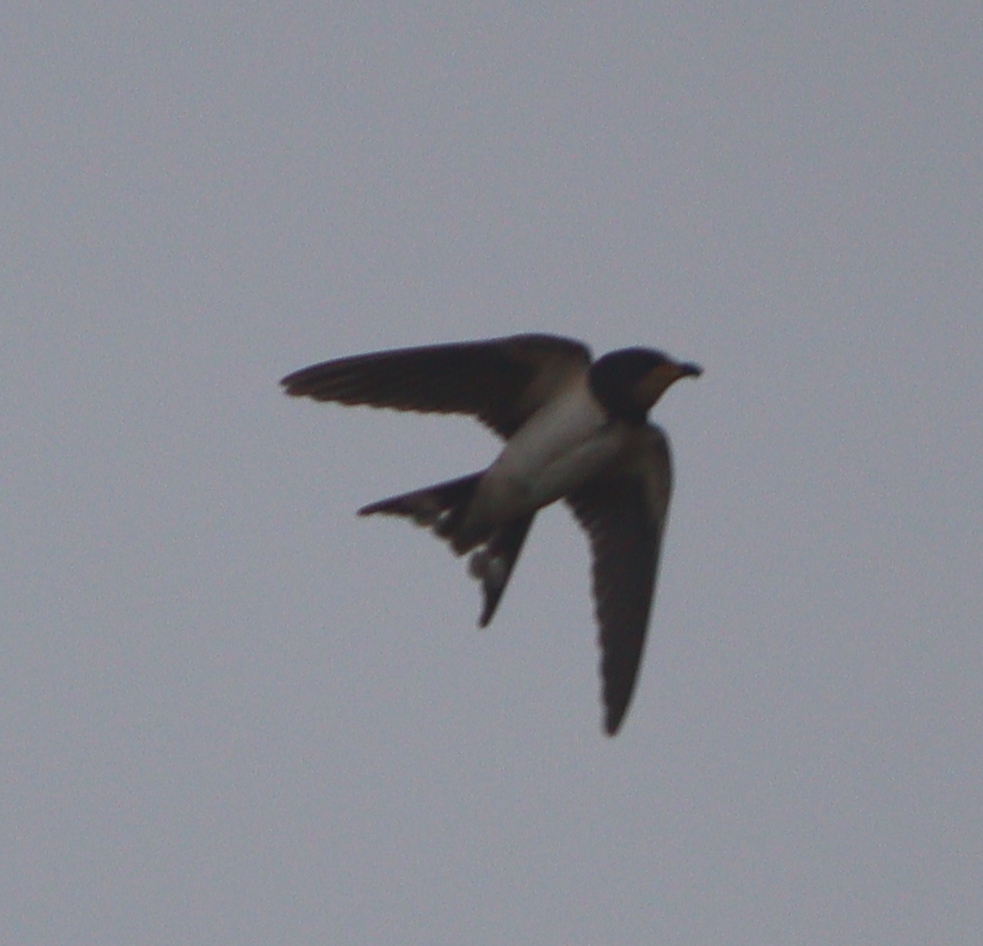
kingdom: Animalia
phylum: Chordata
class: Aves
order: Passeriformes
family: Hirundinidae
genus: Hirundo
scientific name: Hirundo rustica
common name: Barn swallow
